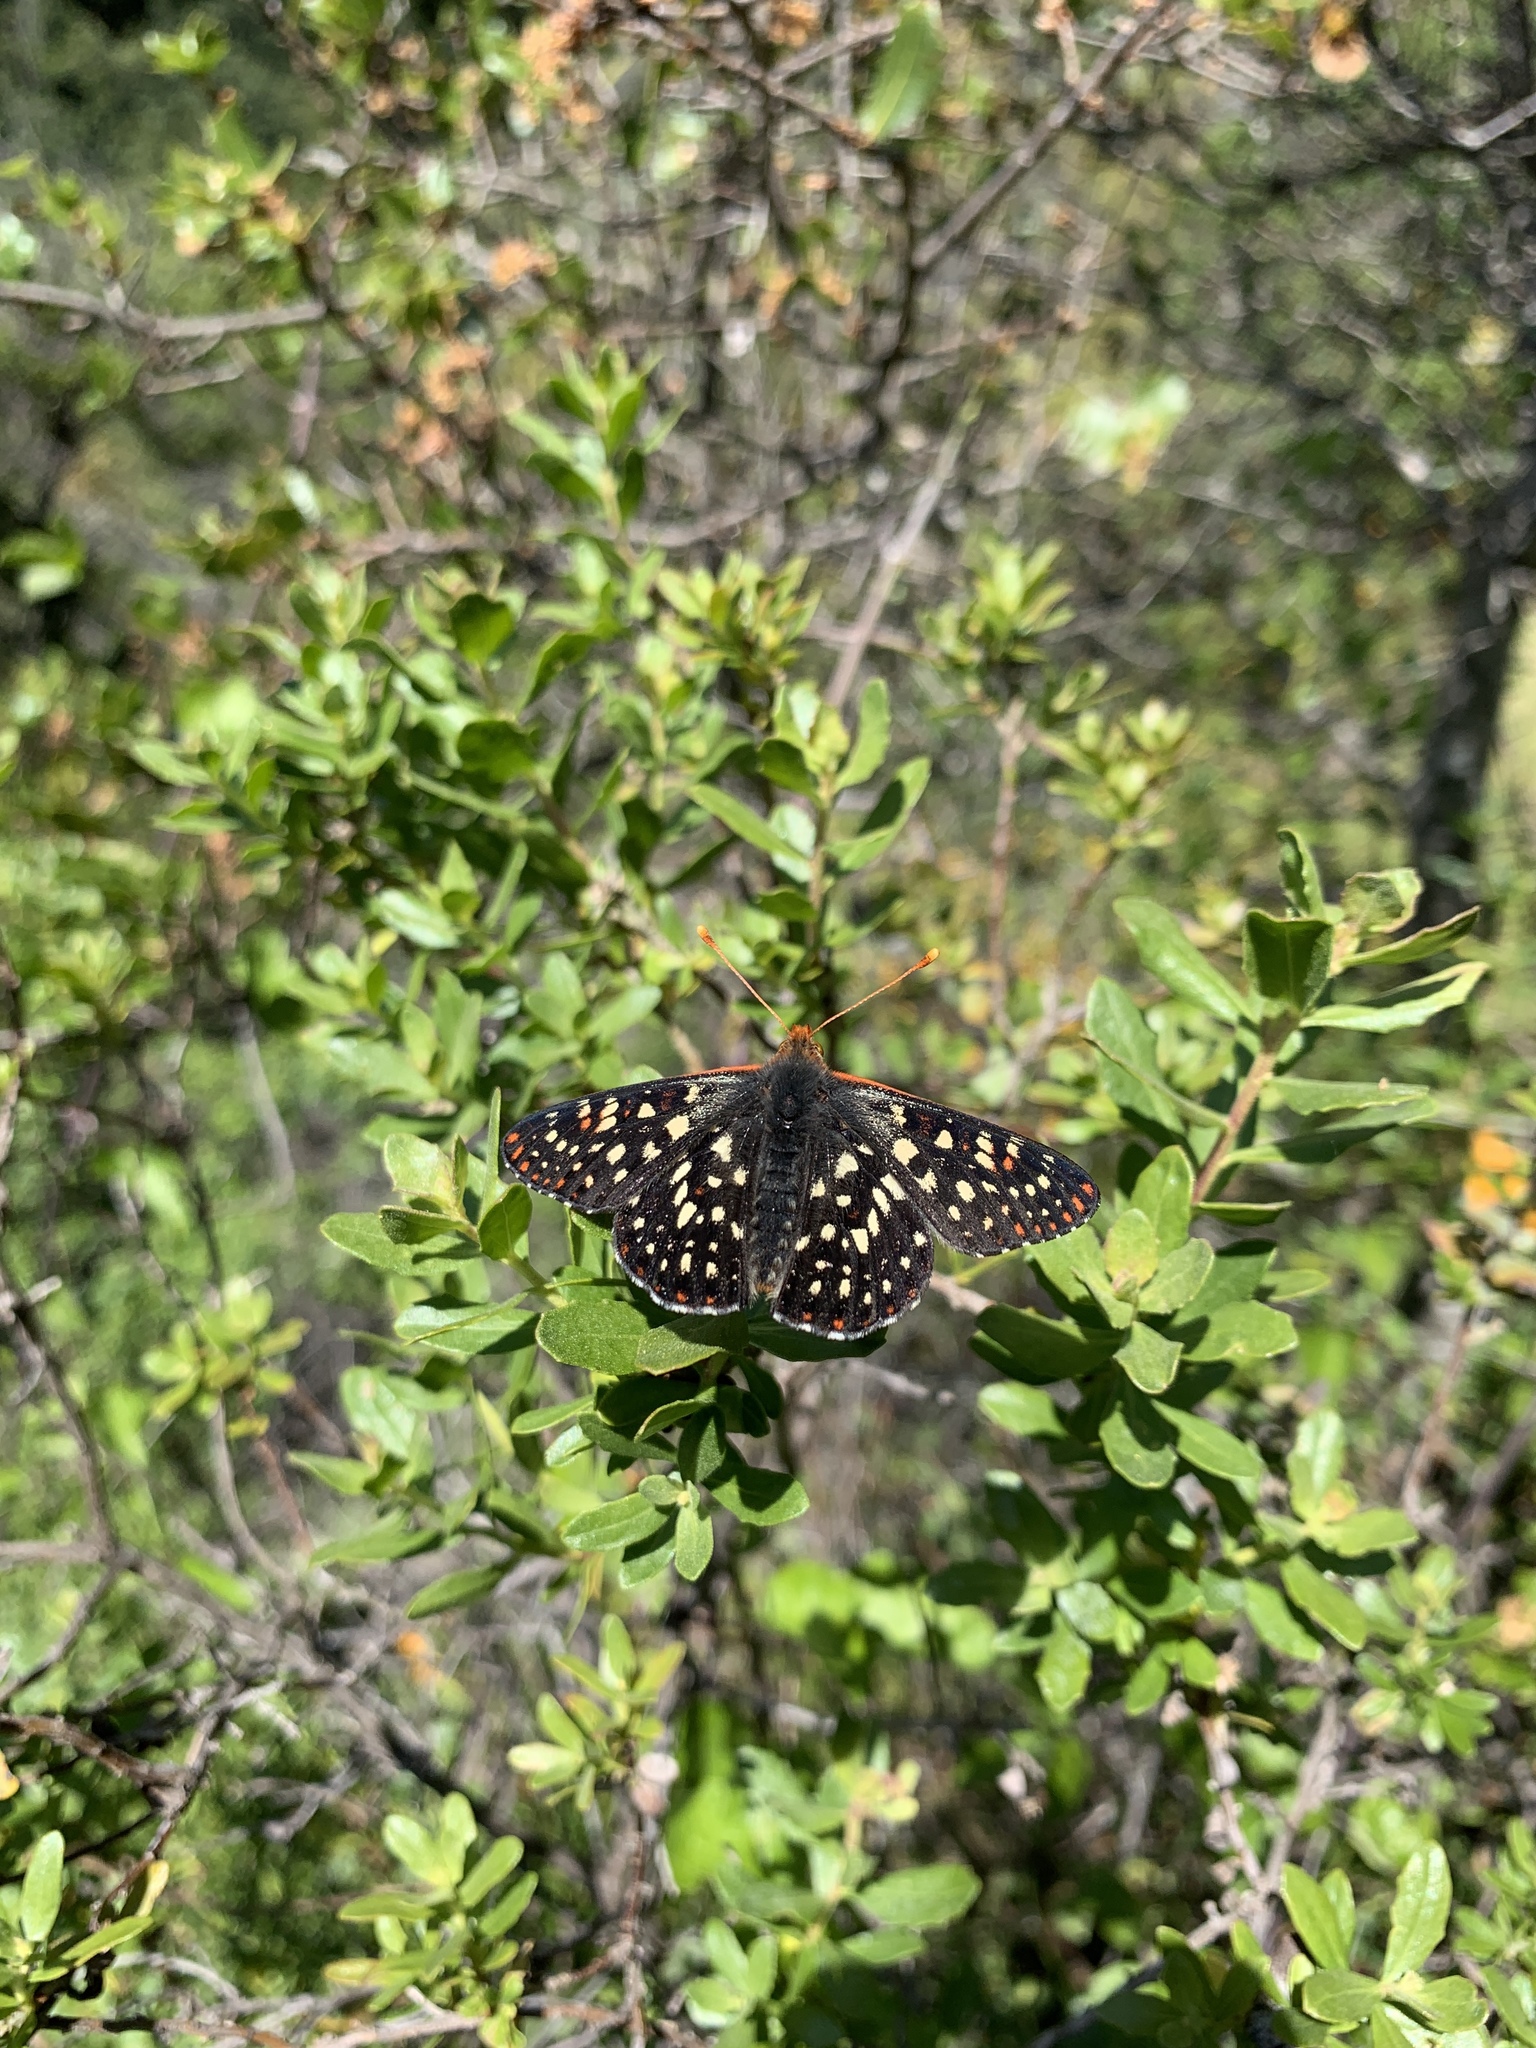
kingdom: Animalia
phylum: Arthropoda
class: Insecta
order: Lepidoptera
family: Nymphalidae
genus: Occidryas
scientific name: Occidryas chalcedona
